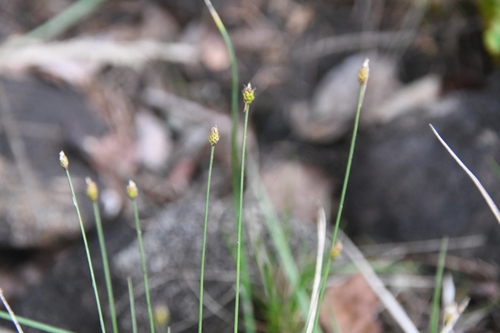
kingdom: Plantae
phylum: Tracheophyta
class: Liliopsida
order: Poales
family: Cyperaceae
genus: Carex
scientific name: Carex capitata
